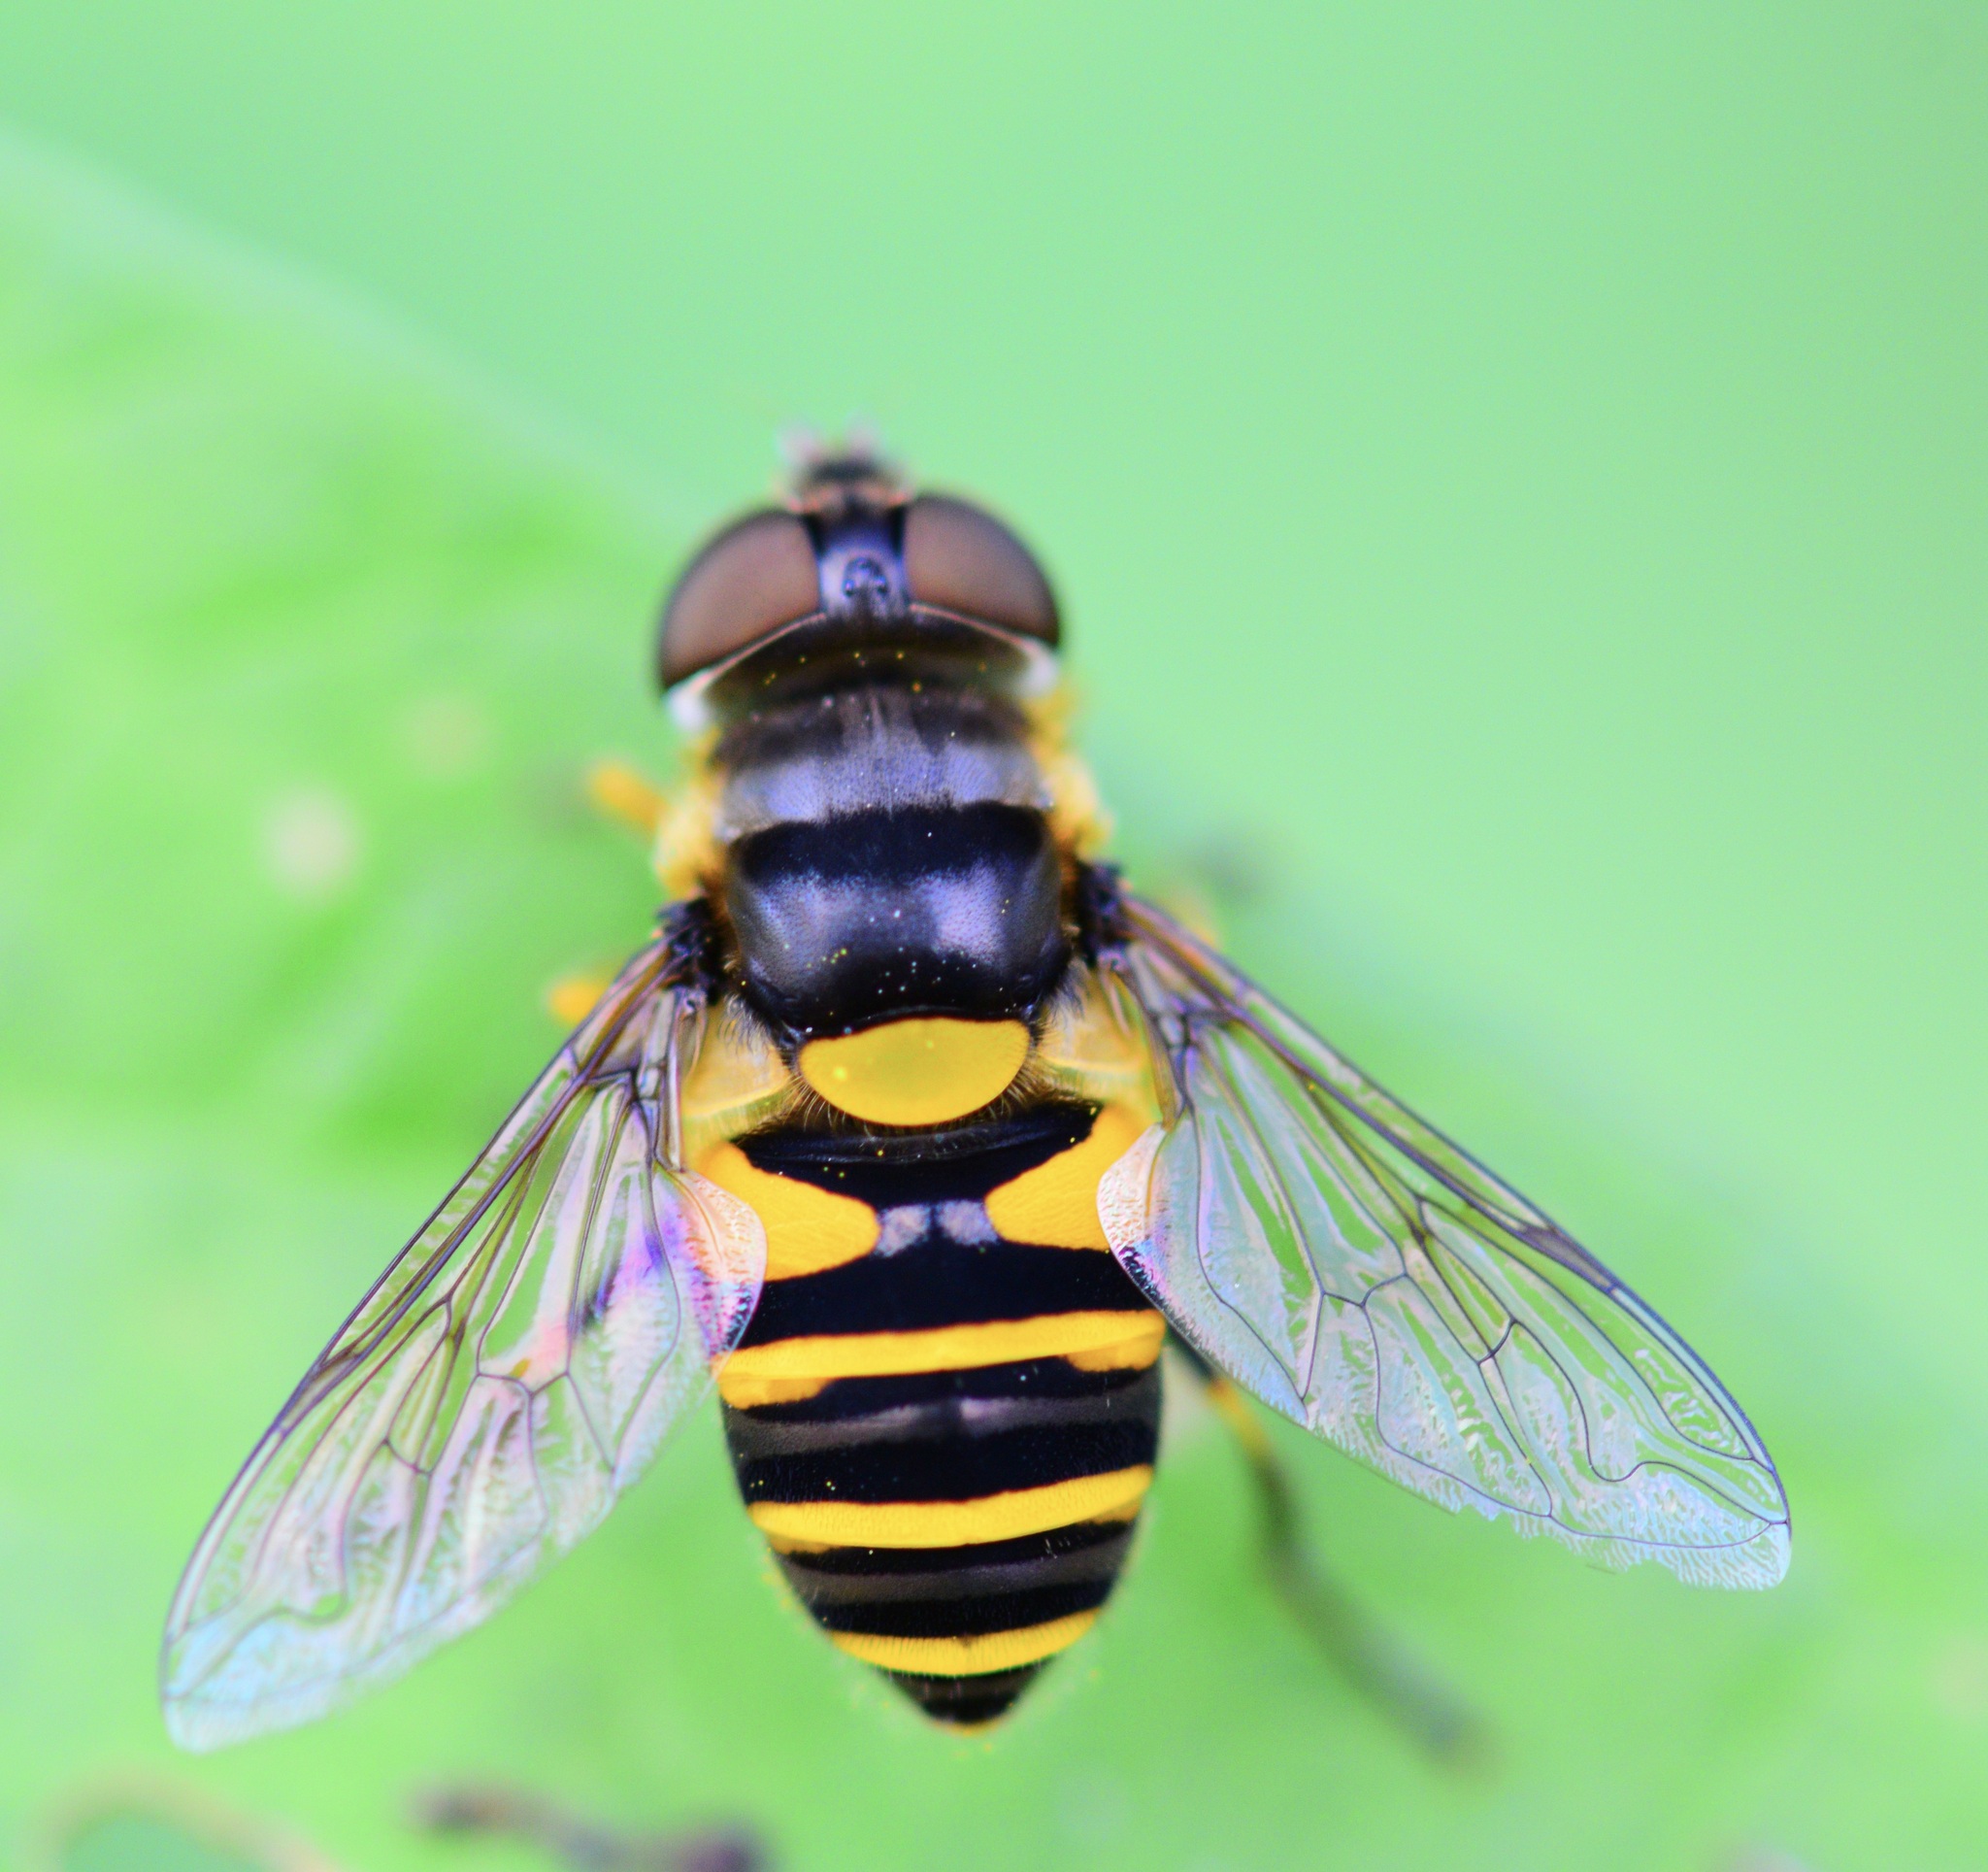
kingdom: Animalia
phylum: Arthropoda
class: Insecta
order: Diptera
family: Syrphidae
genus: Eristalis
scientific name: Eristalis transversa
